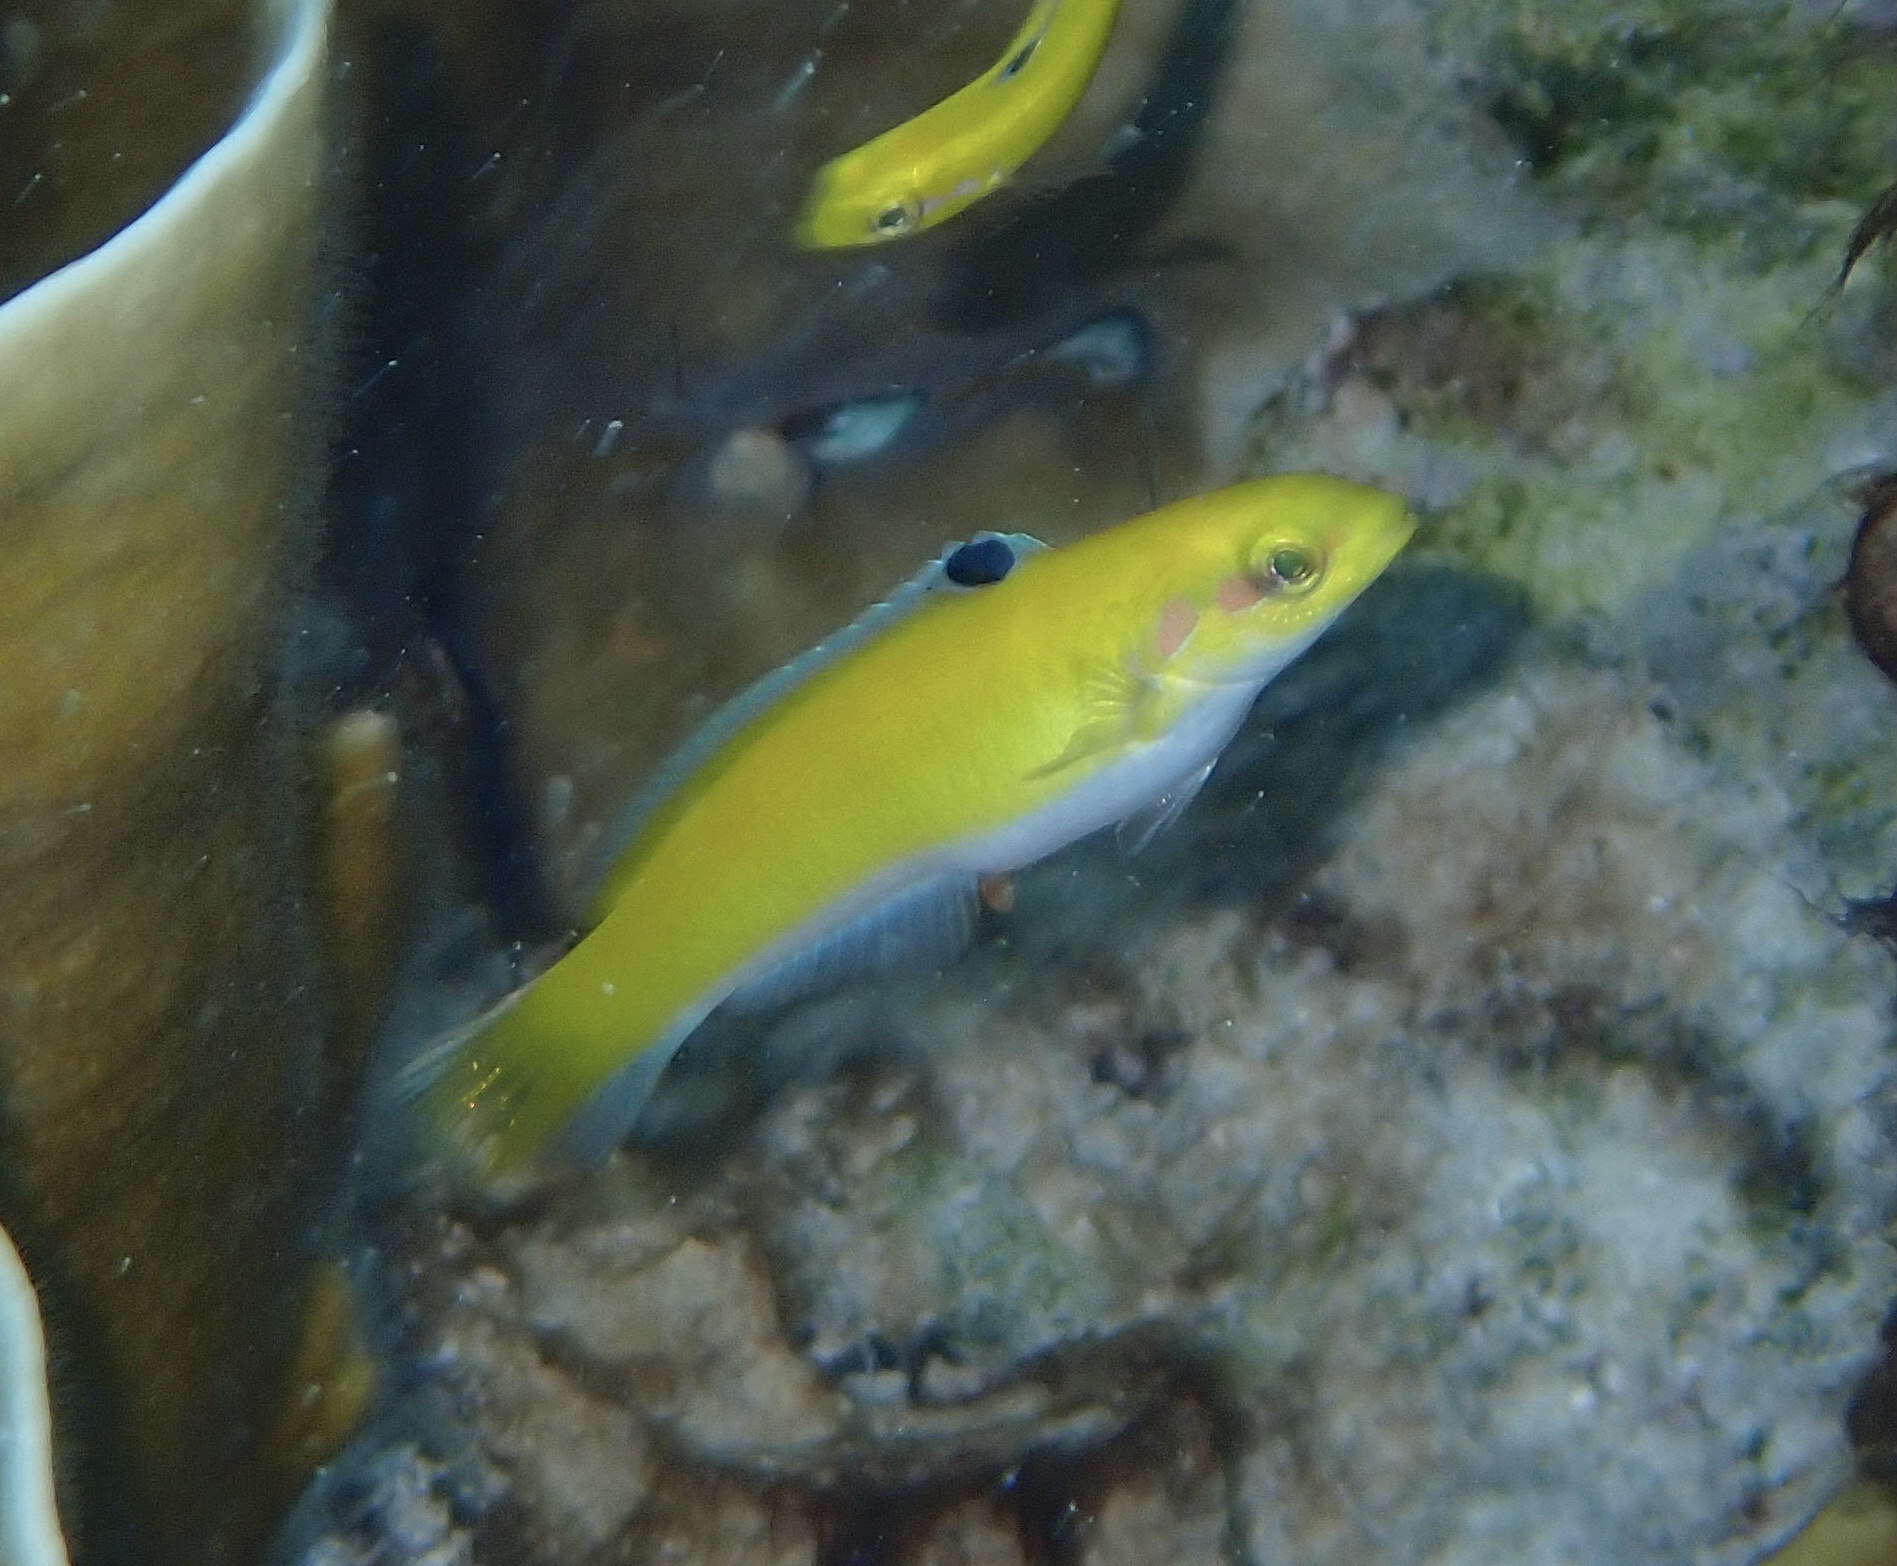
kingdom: Animalia
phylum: Chordata
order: Perciformes
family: Labridae
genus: Thalassoma
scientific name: Thalassoma bifasciatum
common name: Bluehead wrasse
